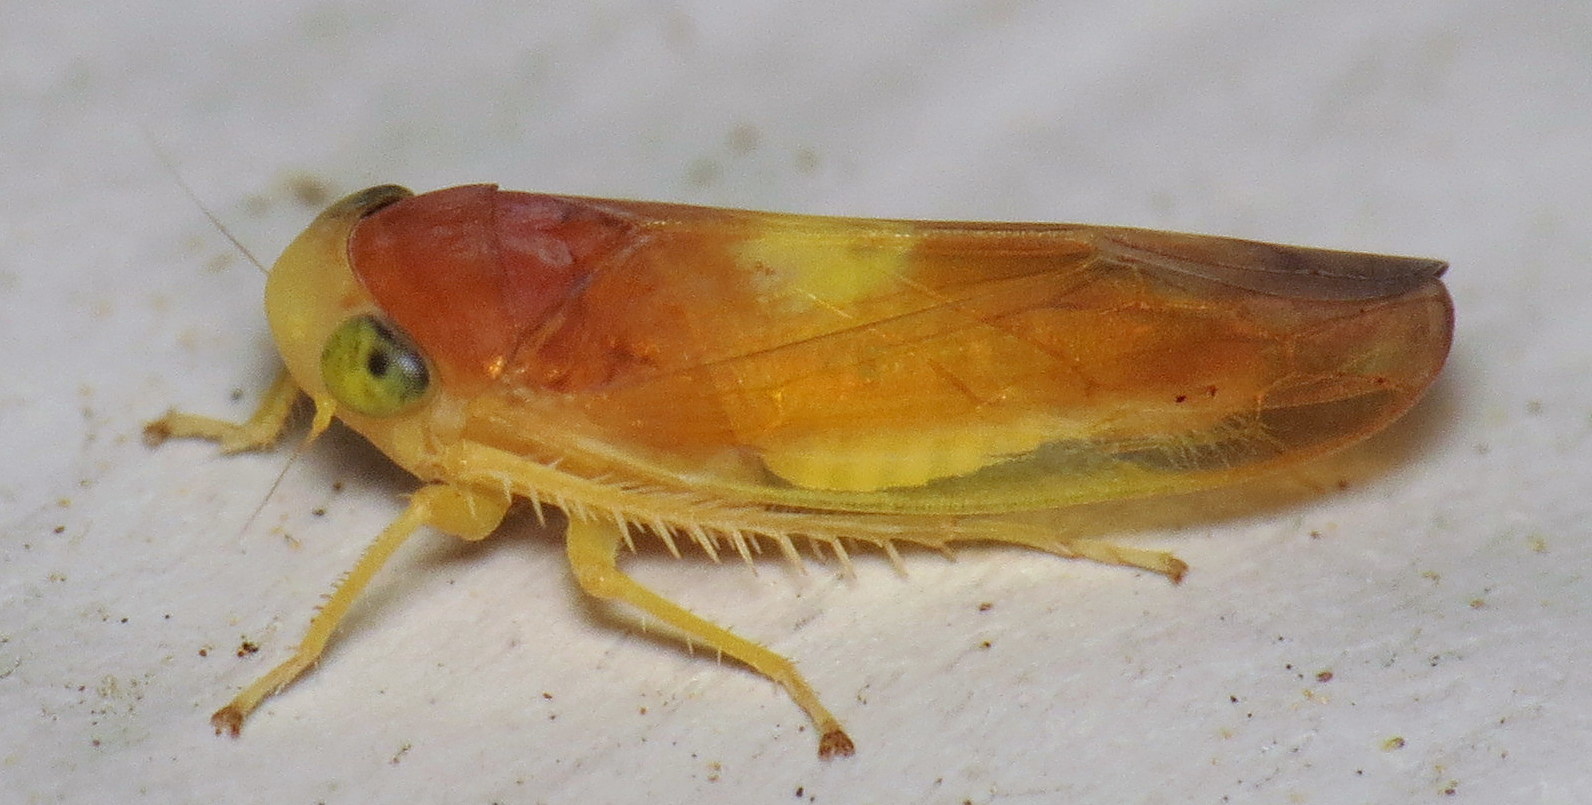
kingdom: Animalia
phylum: Arthropoda
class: Insecta
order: Hemiptera
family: Cicadellidae
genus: Colladonus
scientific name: Colladonus setaceus
